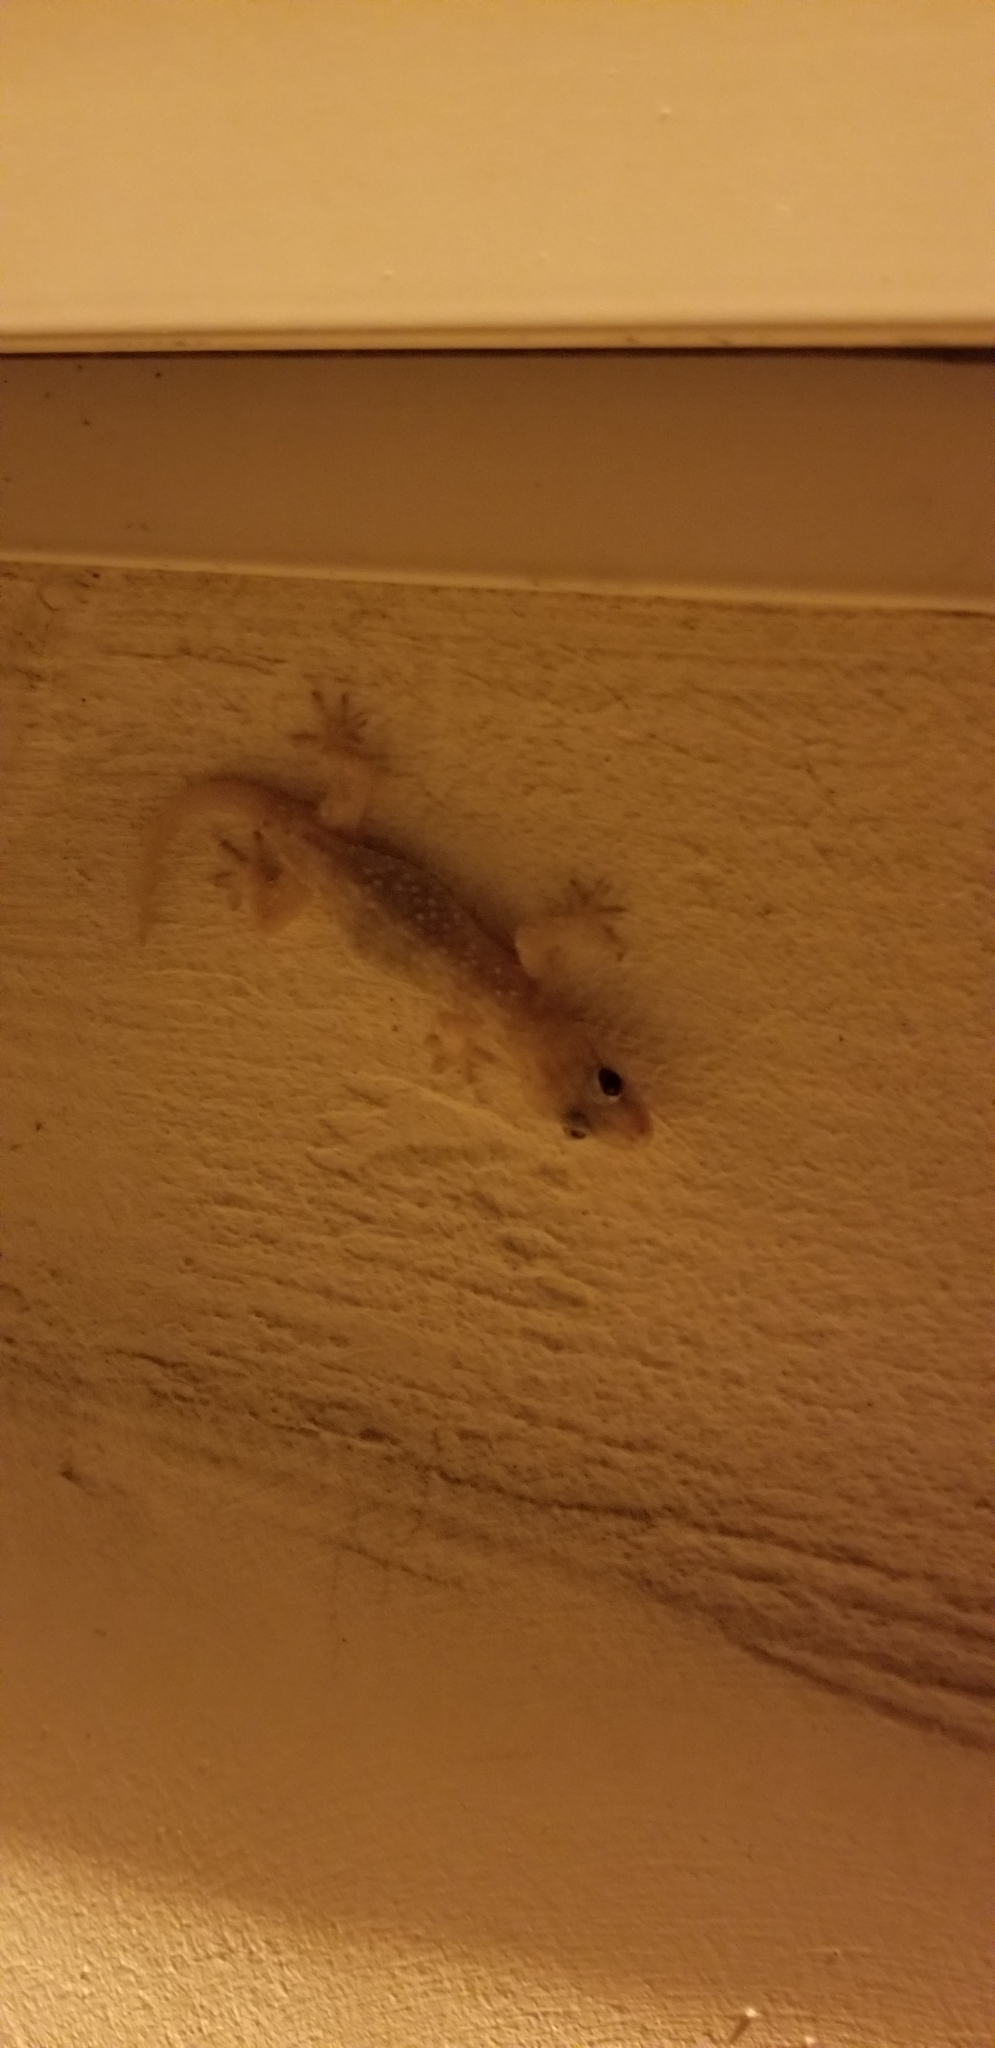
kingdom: Animalia
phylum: Chordata
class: Squamata
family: Gekkonidae
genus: Hemidactylus
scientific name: Hemidactylus turcicus
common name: Turkish gecko
